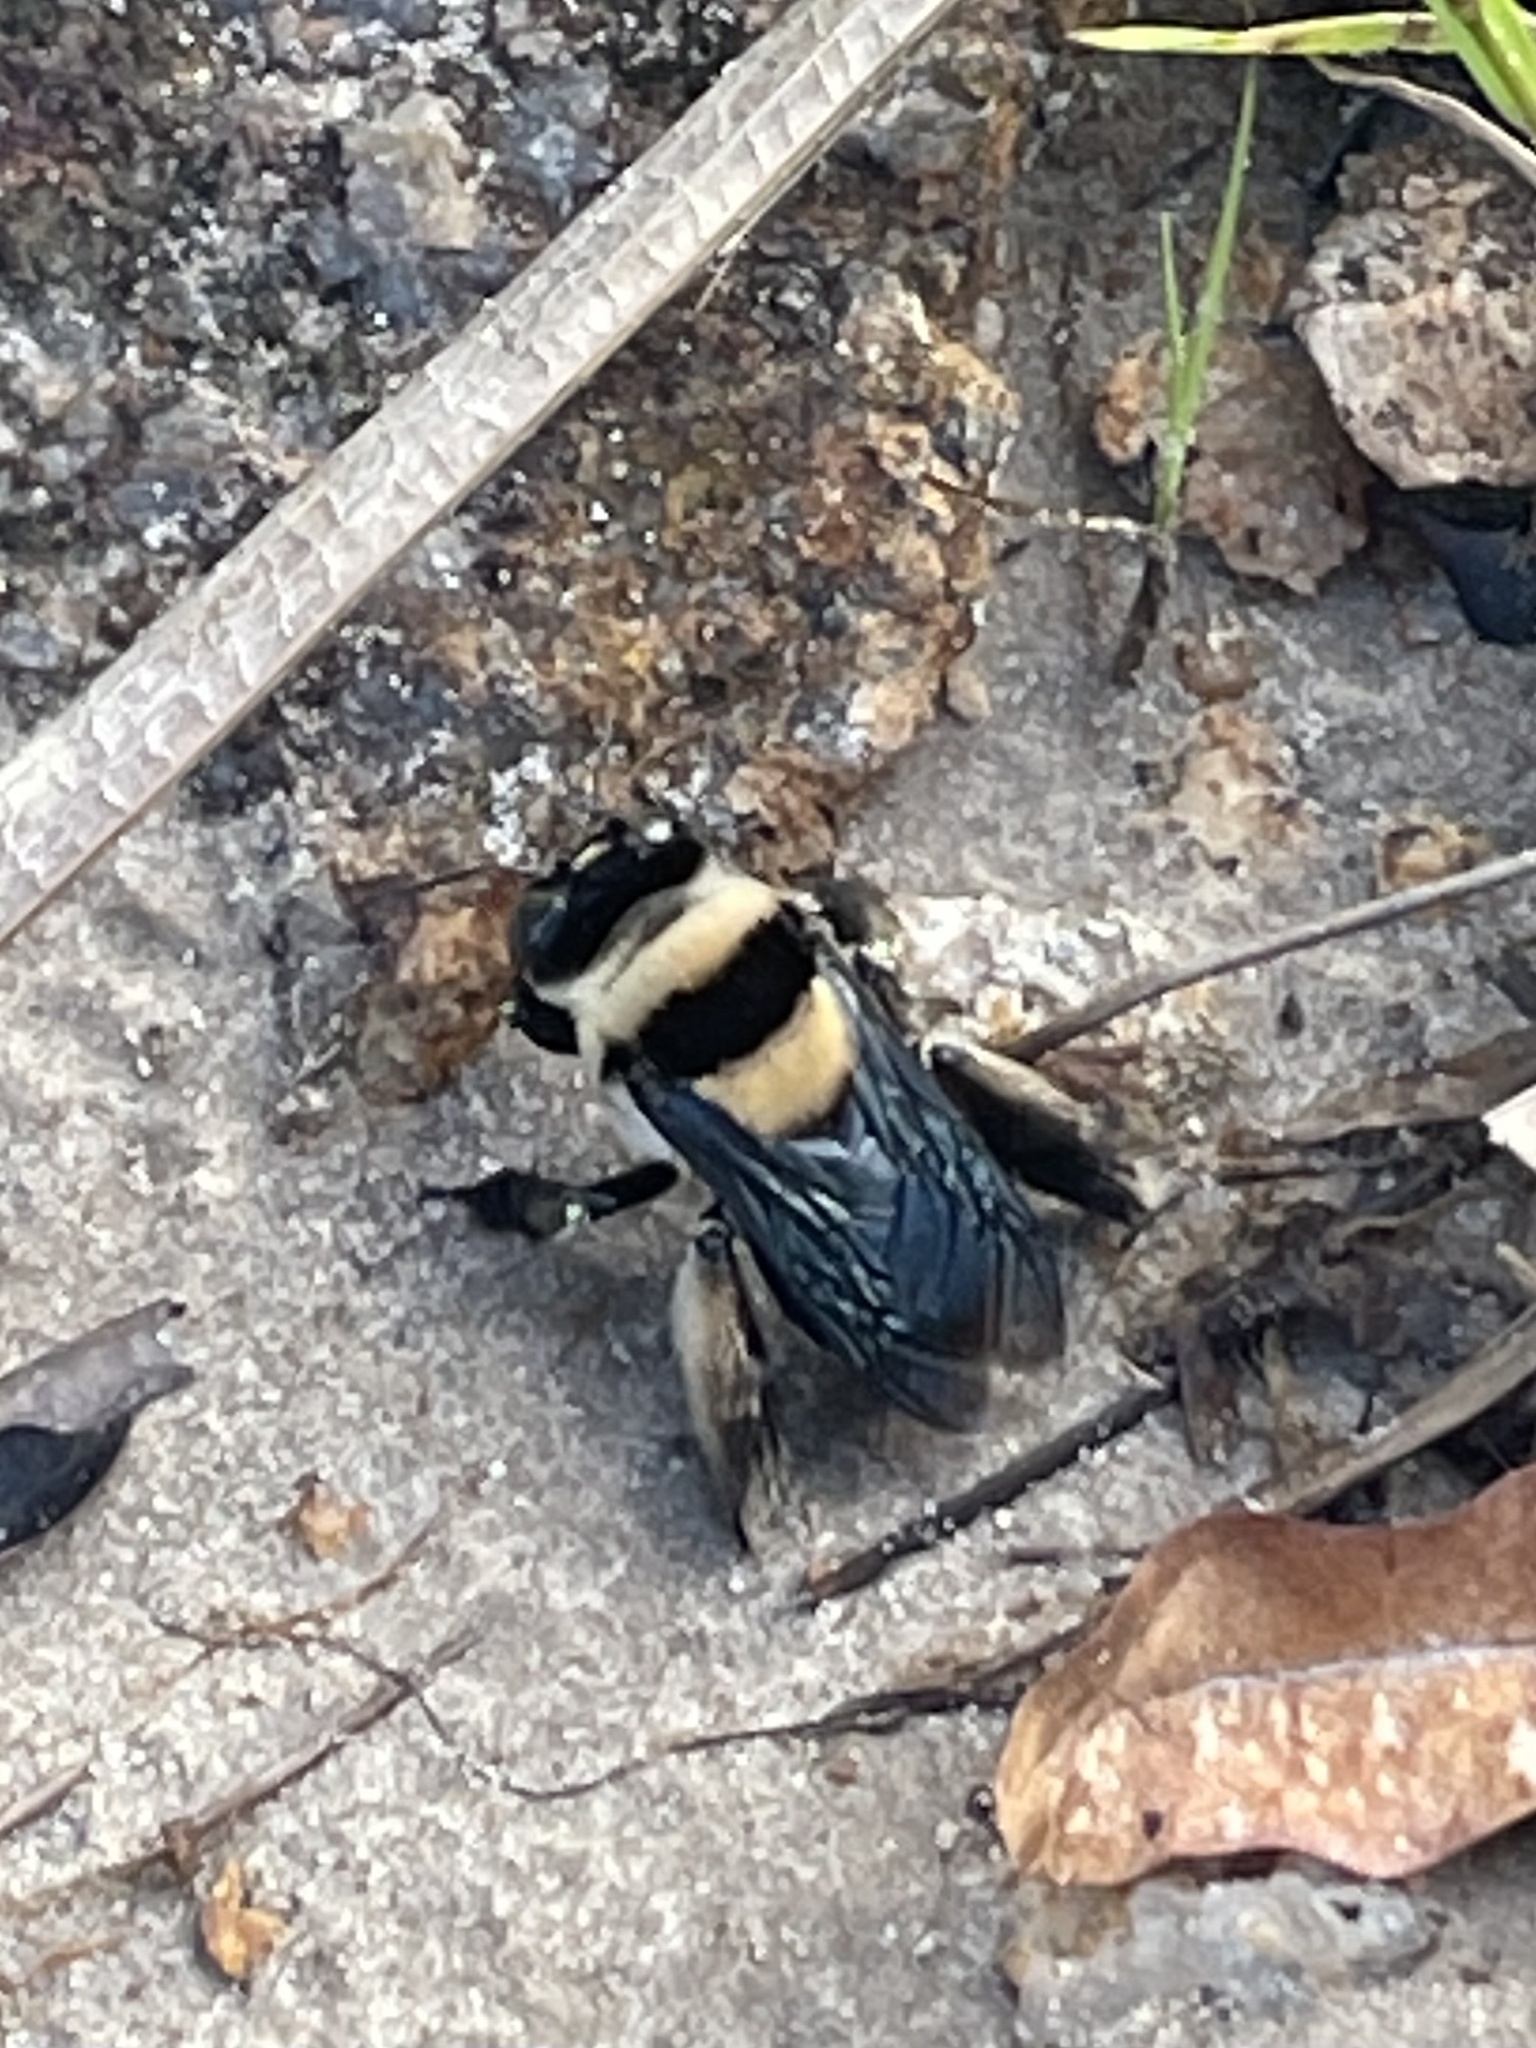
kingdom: Animalia
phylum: Arthropoda
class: Insecta
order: Hymenoptera
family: Apidae
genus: Centris
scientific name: Centris flavifrons
